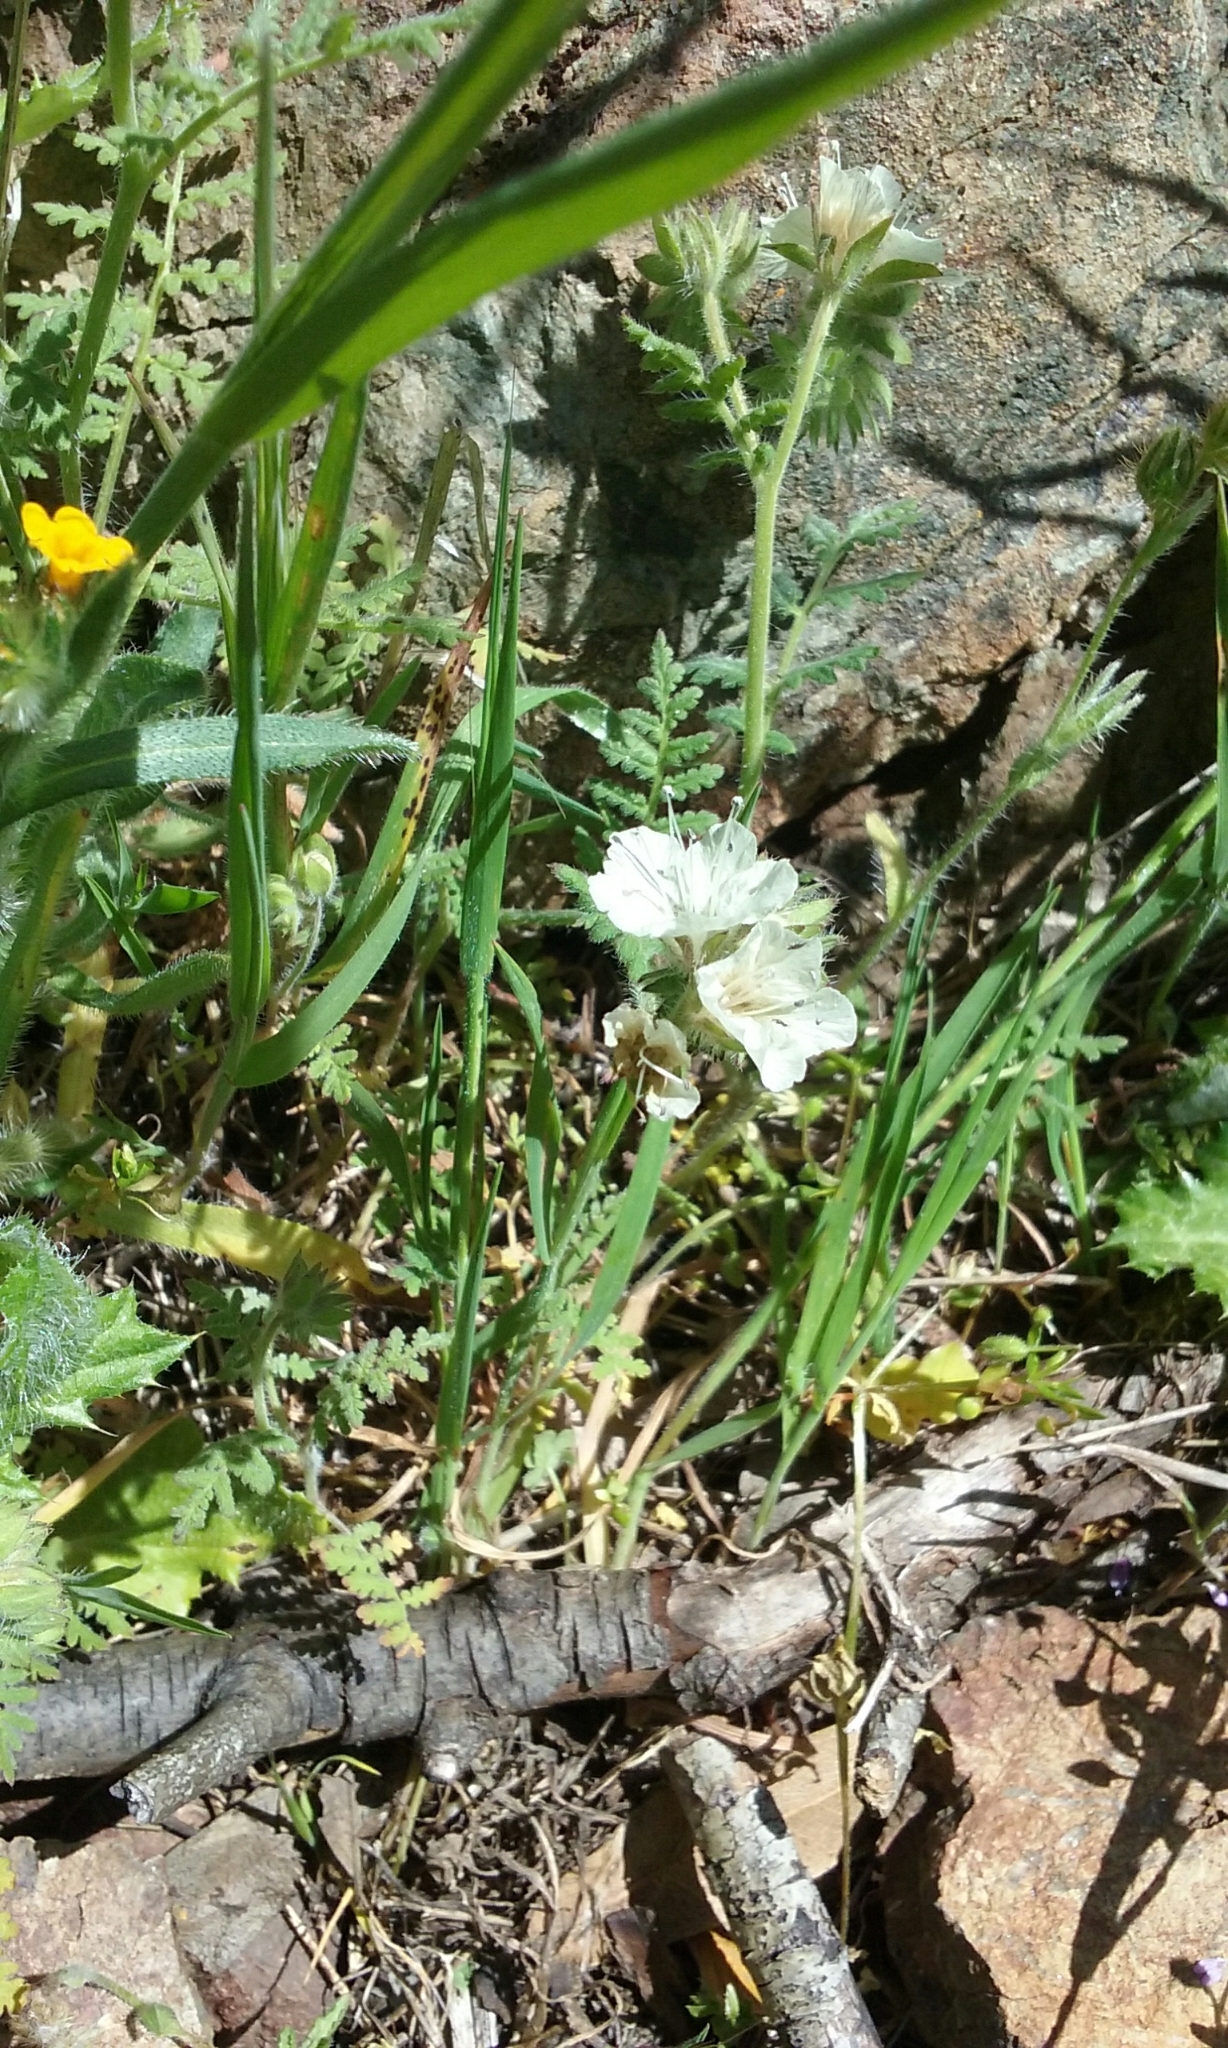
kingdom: Plantae
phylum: Tracheophyta
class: Magnoliopsida
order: Boraginales
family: Hydrophyllaceae
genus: Phacelia
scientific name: Phacelia distans
